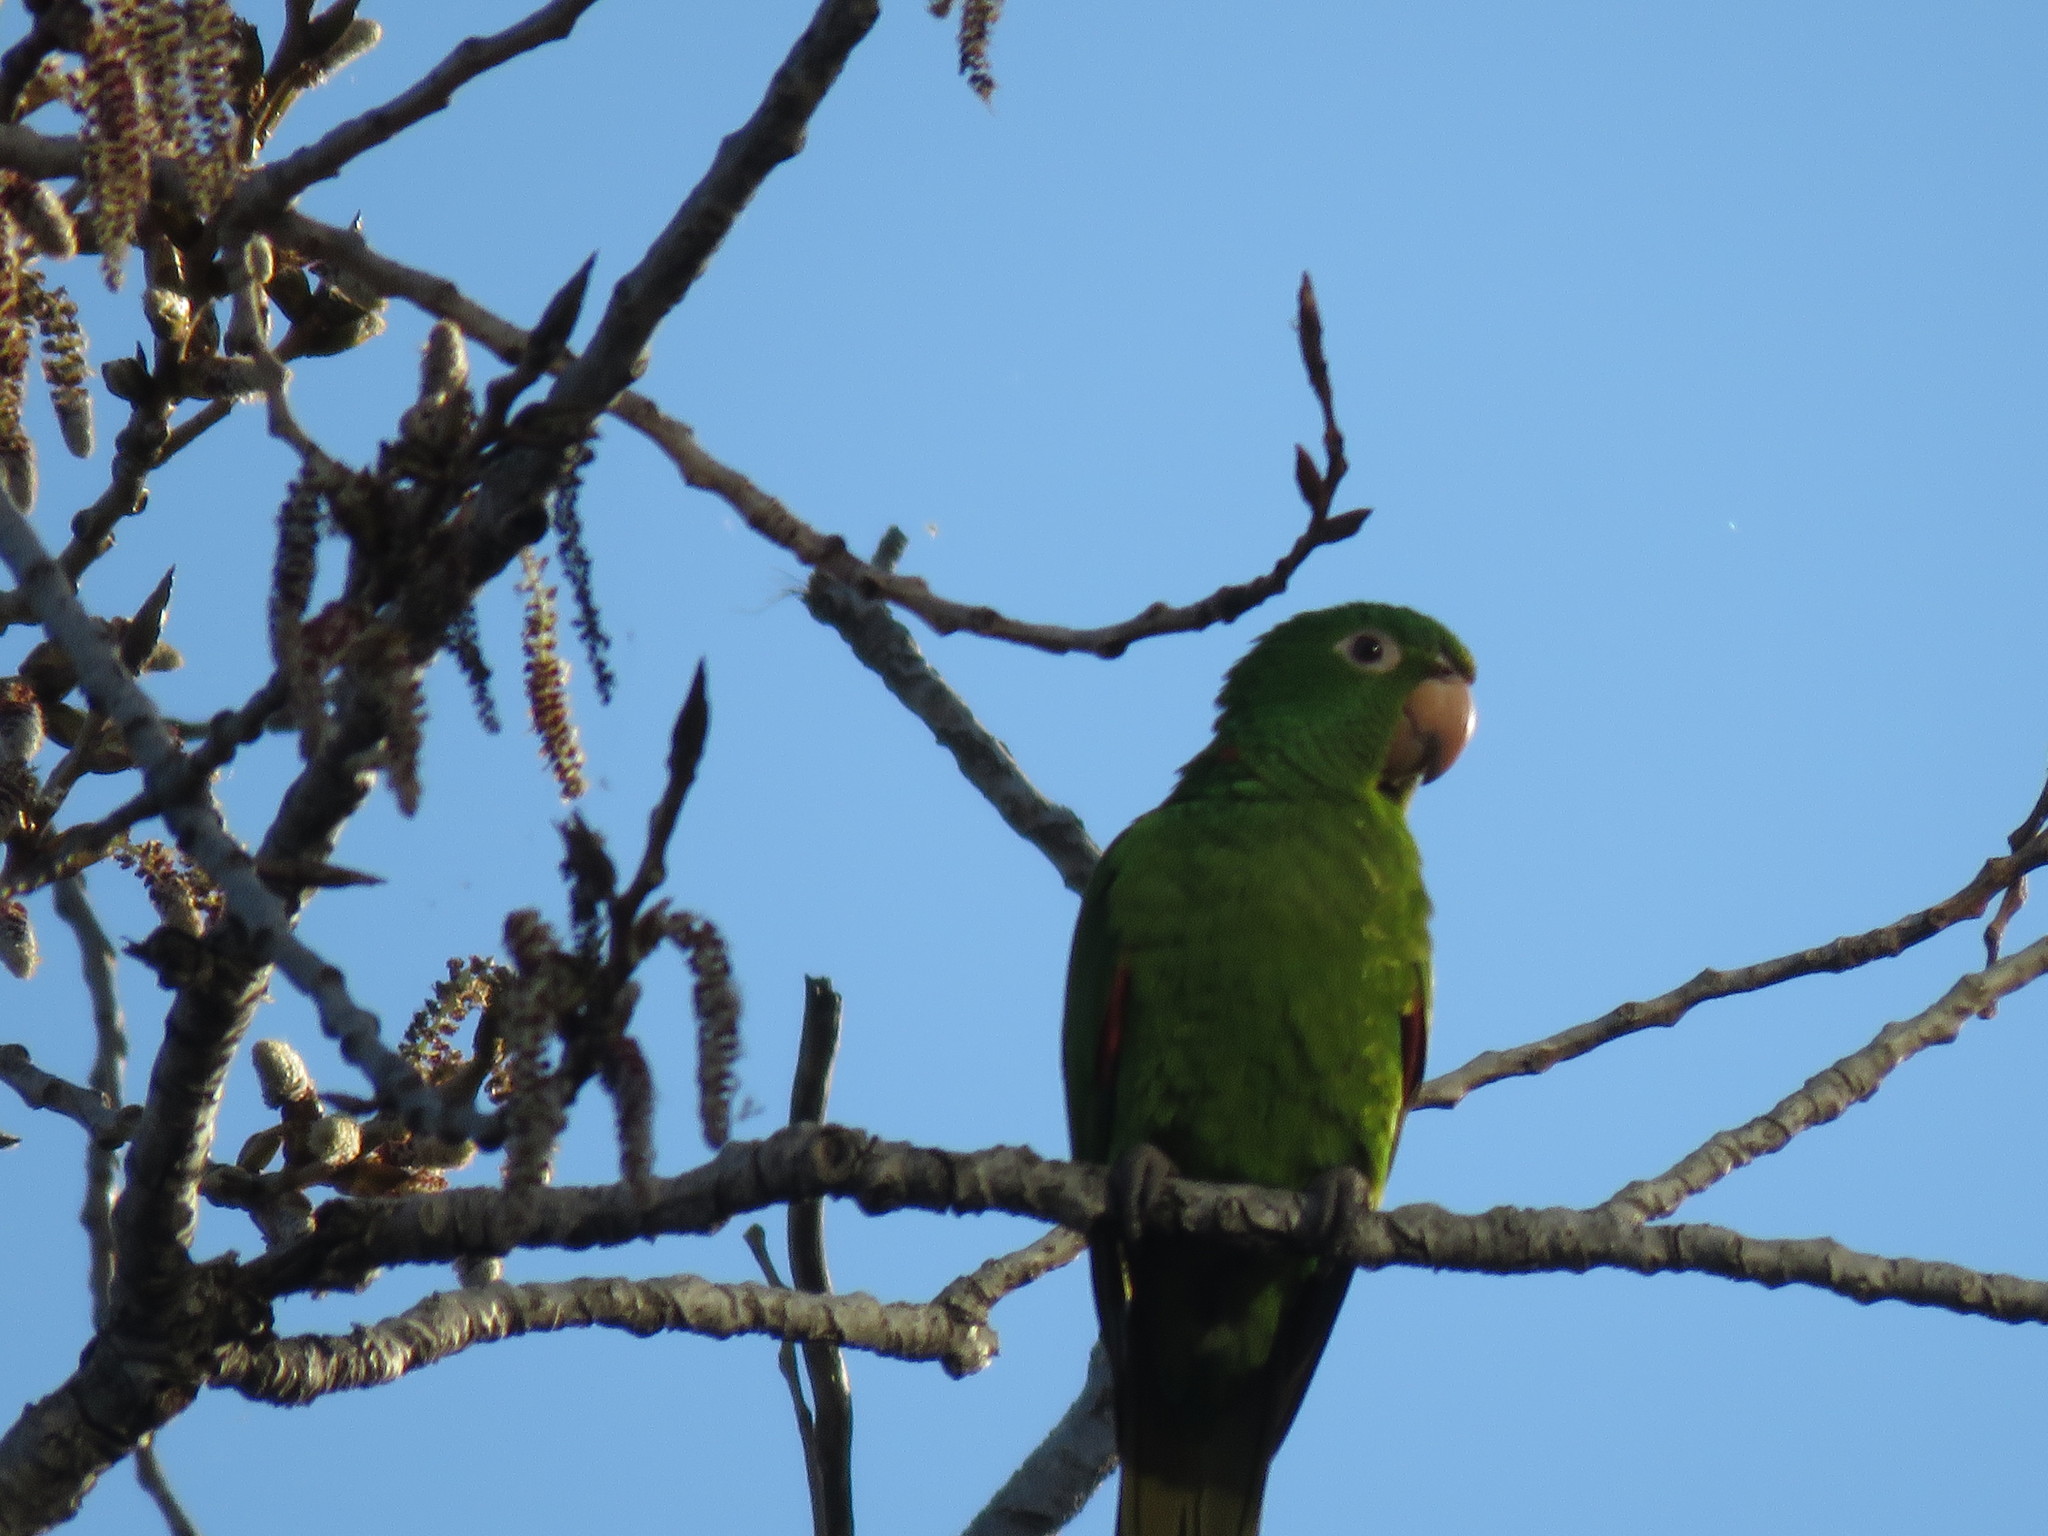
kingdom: Animalia
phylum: Chordata
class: Aves
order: Psittaciformes
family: Psittacidae
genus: Aratinga
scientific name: Aratinga leucophthalma
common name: White-eyed parakeet
